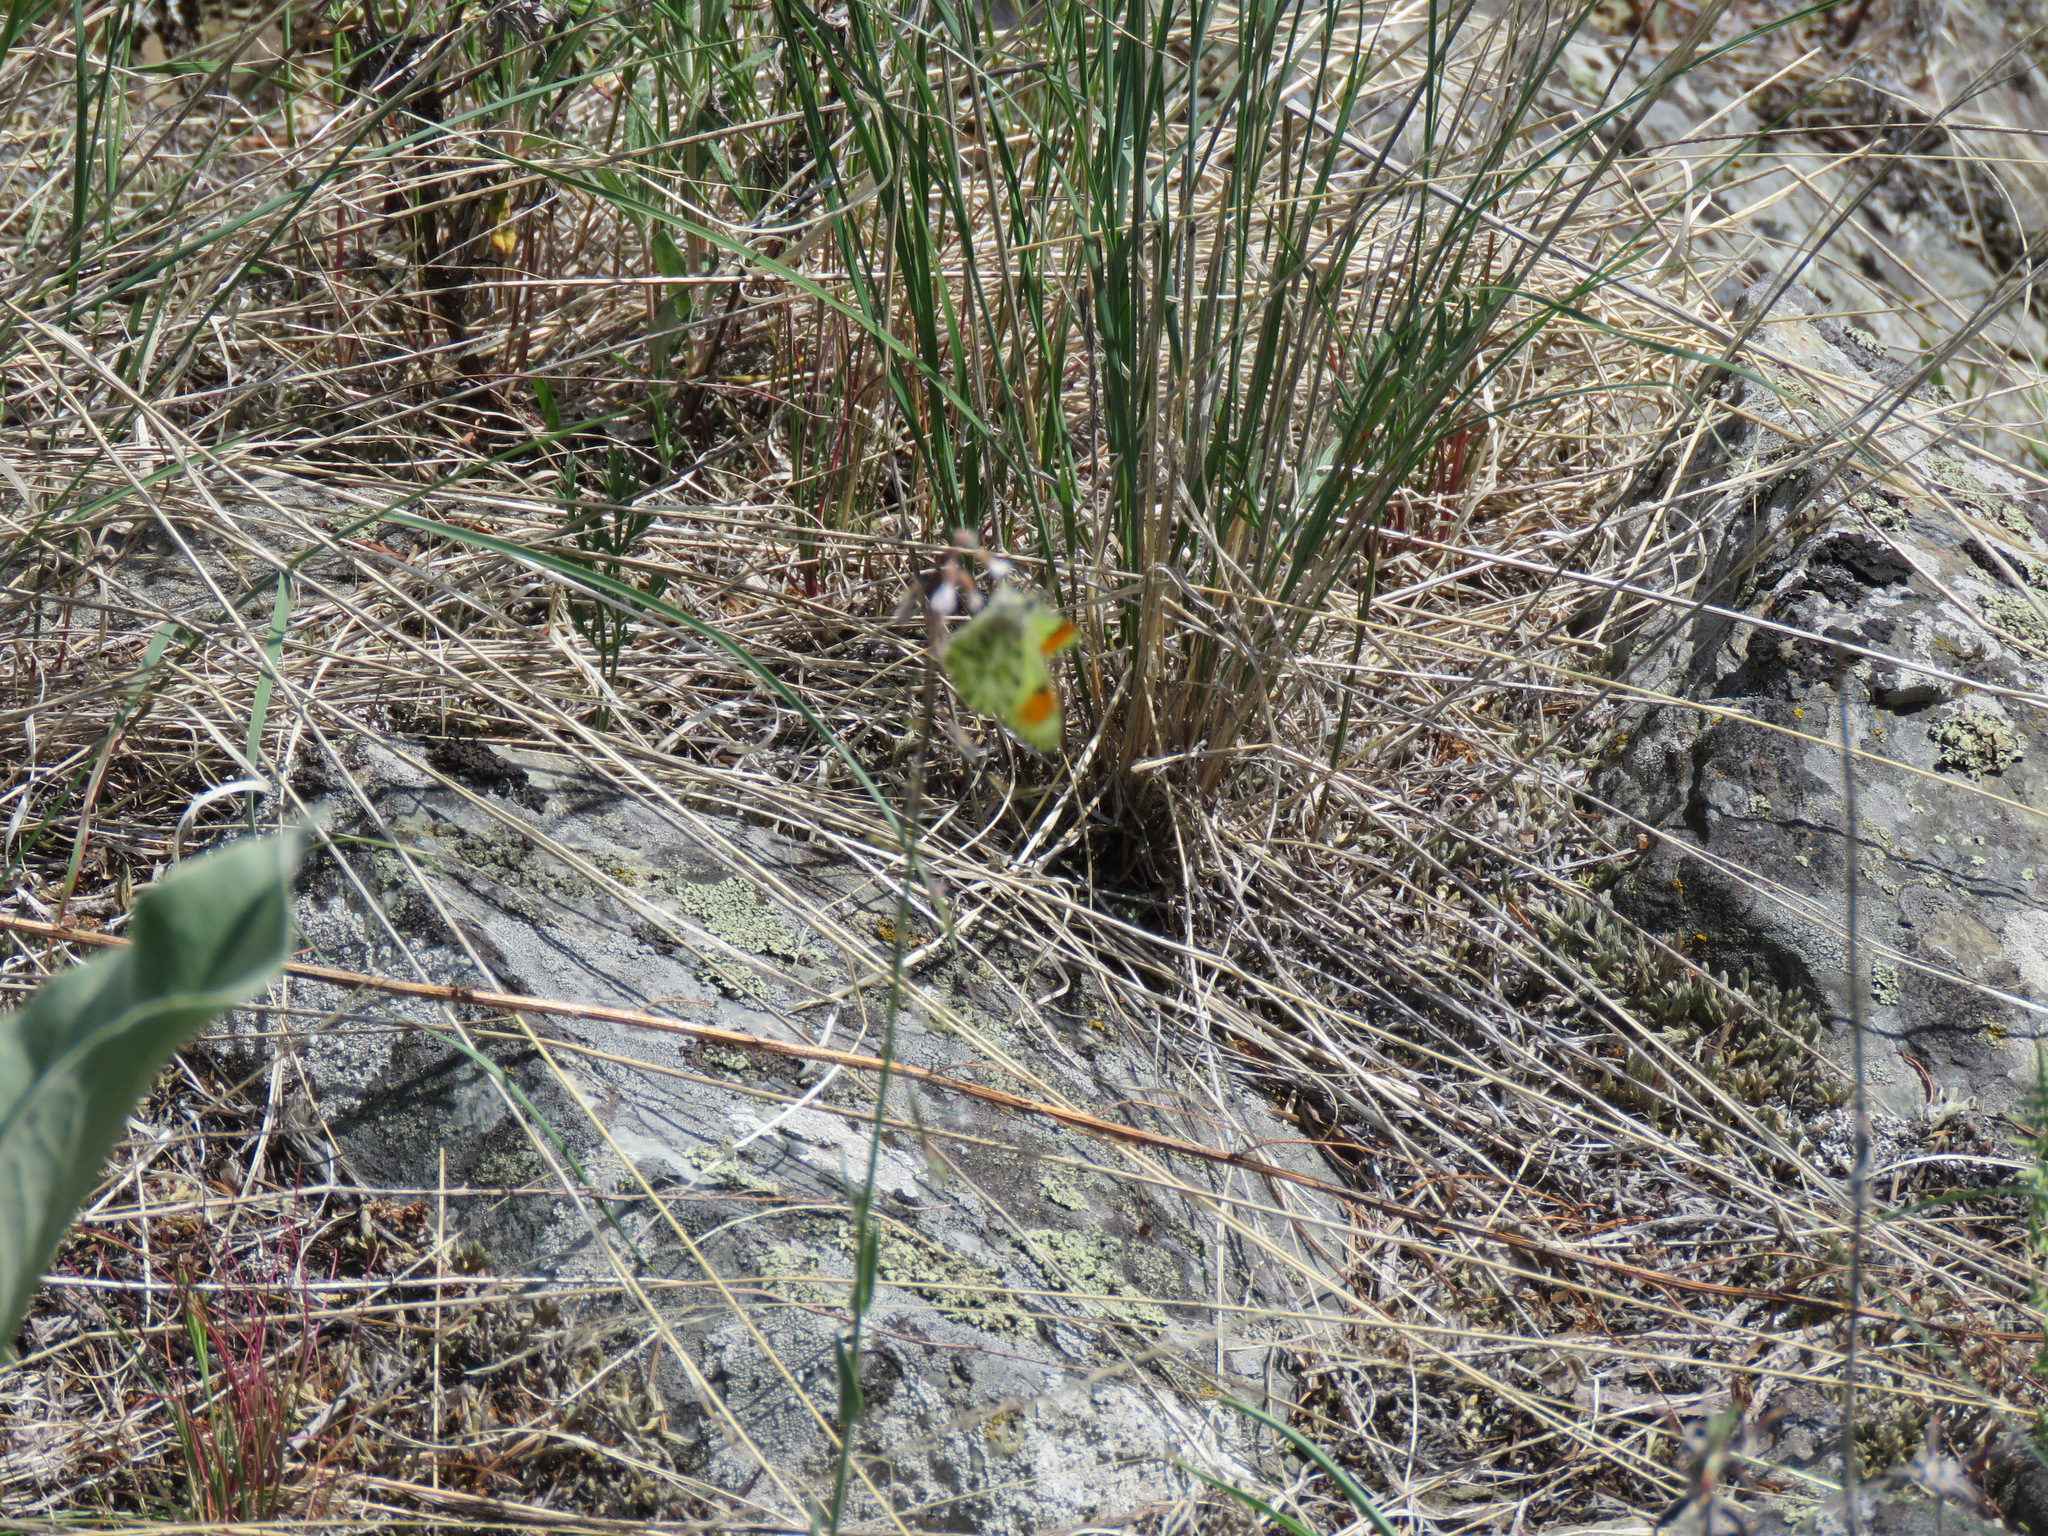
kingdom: Animalia
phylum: Arthropoda
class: Insecta
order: Lepidoptera
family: Pieridae
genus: Anthocharis
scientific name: Anthocharis julia
